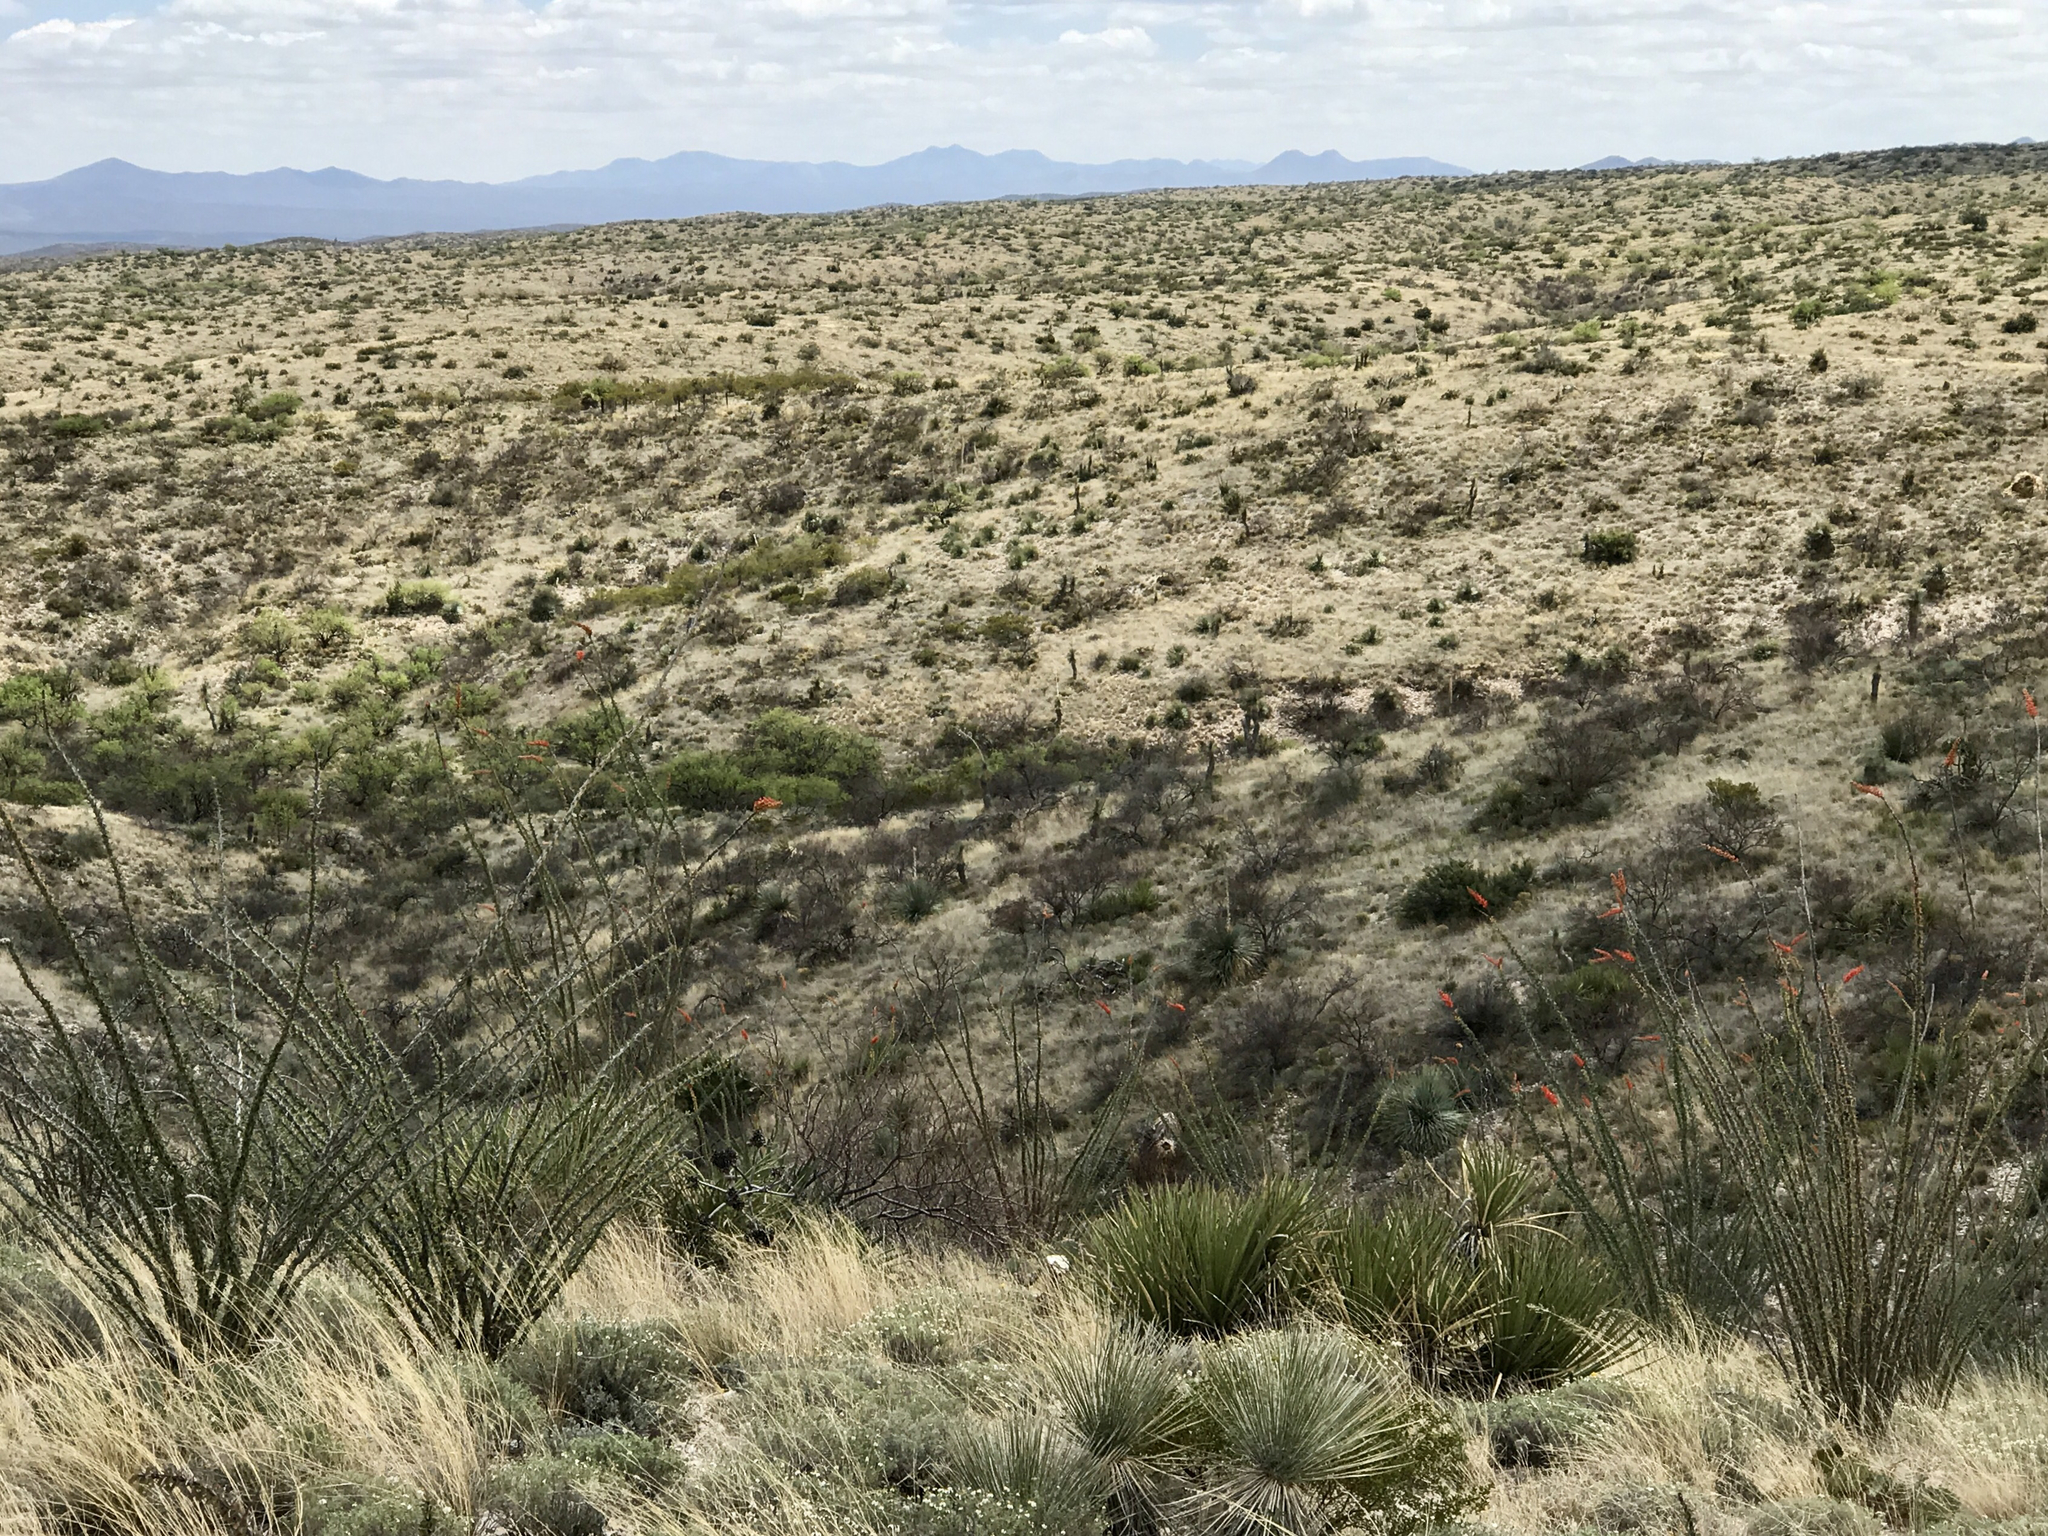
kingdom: Plantae
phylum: Tracheophyta
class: Magnoliopsida
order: Ericales
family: Fouquieriaceae
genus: Fouquieria
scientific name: Fouquieria splendens
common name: Vine-cactus
